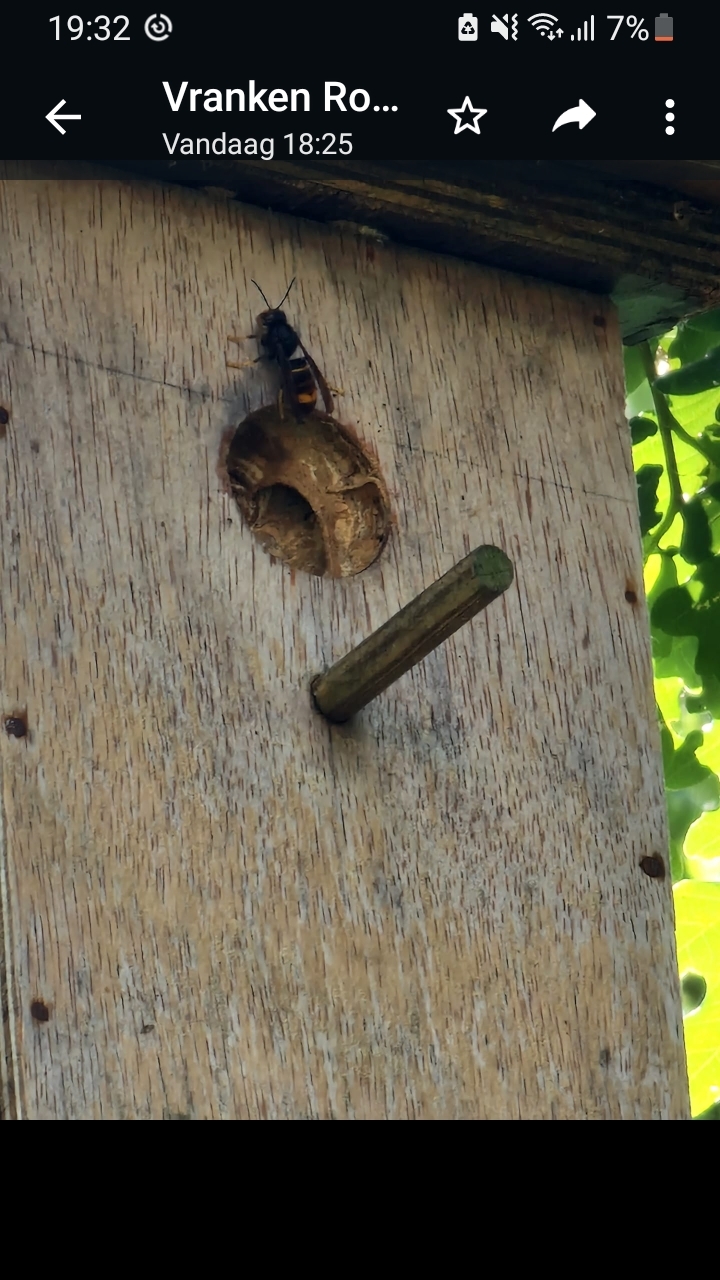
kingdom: Animalia
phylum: Arthropoda
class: Insecta
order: Hymenoptera
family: Vespidae
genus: Vespa
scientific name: Vespa velutina
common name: Asian hornet
